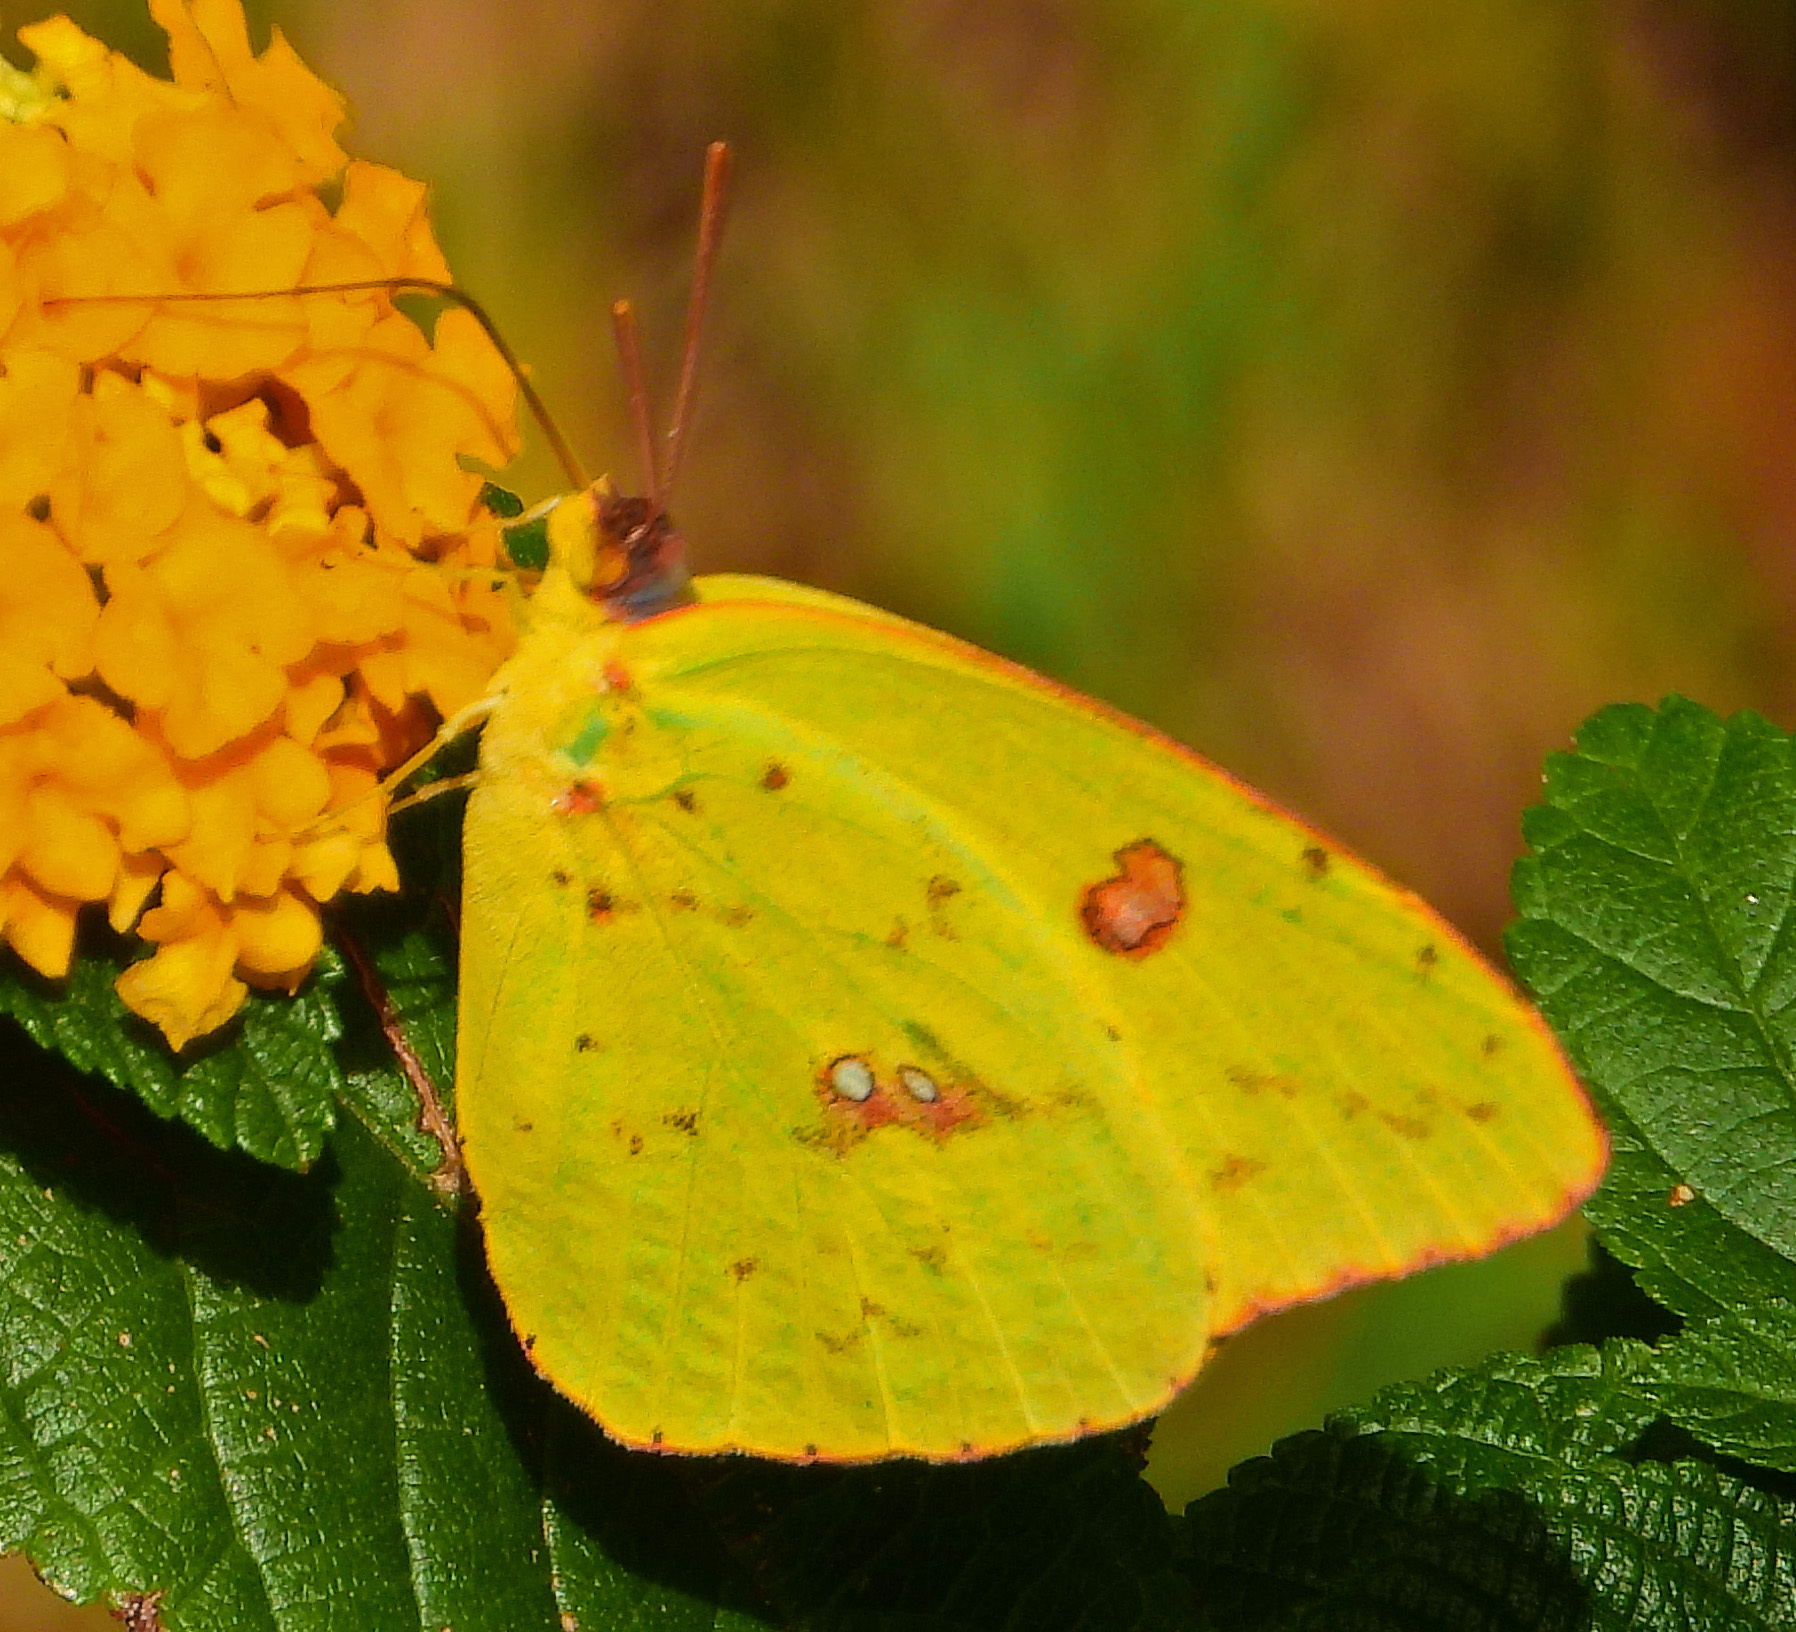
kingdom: Animalia
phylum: Arthropoda
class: Insecta
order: Lepidoptera
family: Pieridae
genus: Phoebis
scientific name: Phoebis sennae
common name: Cloudless sulphur
